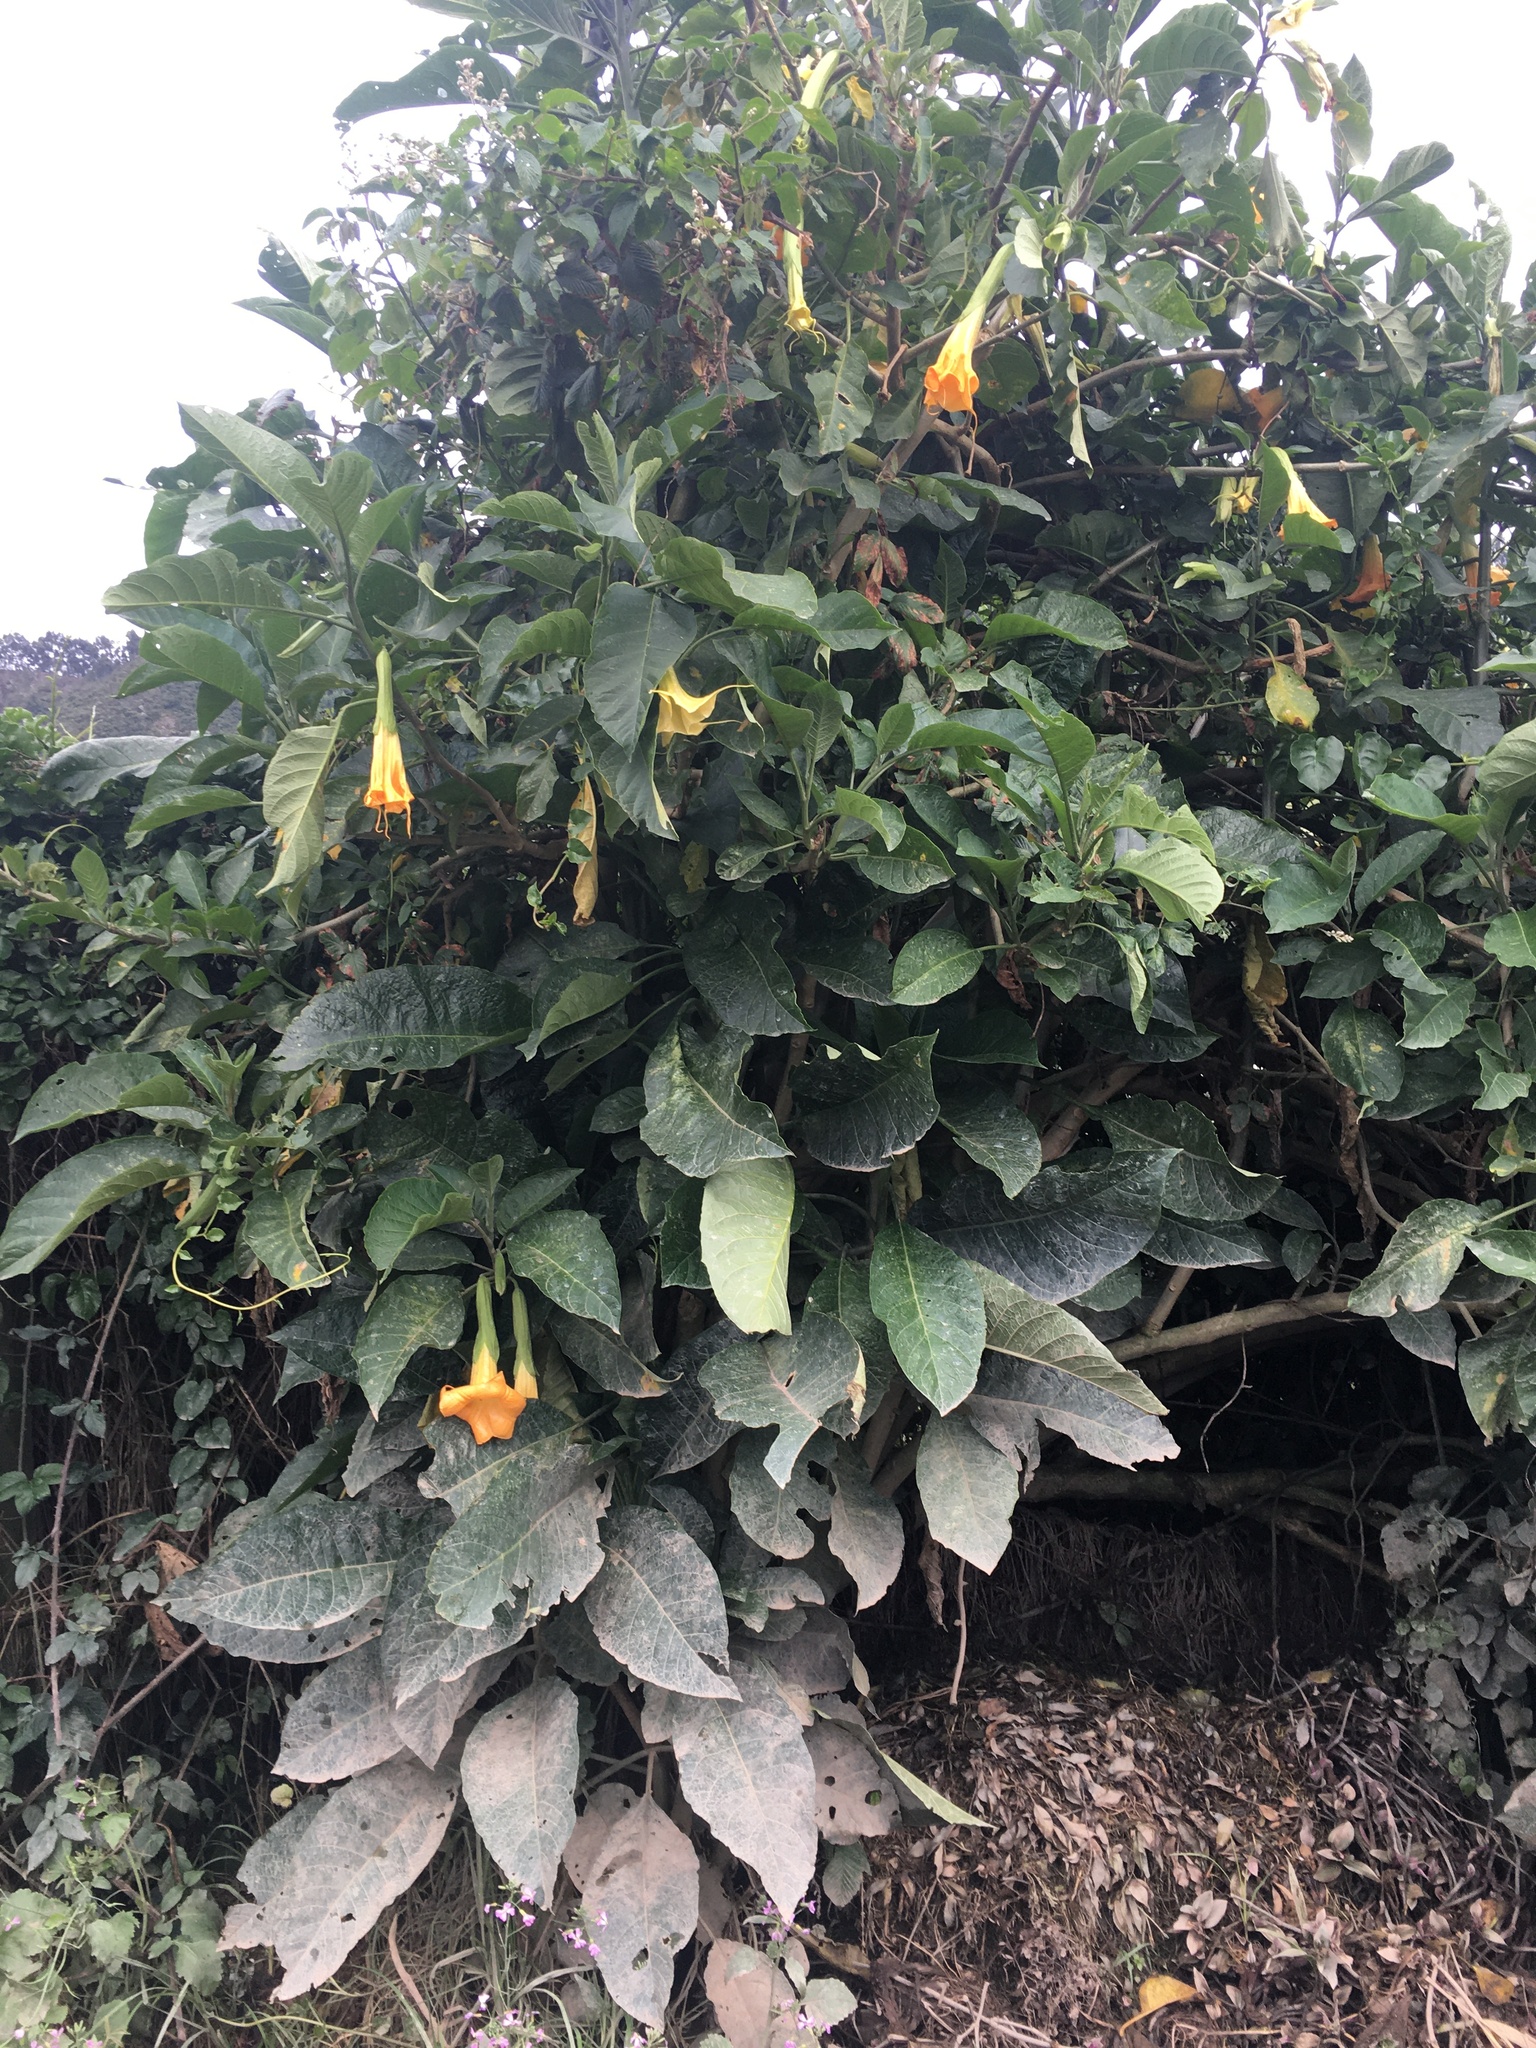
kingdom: Plantae
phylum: Tracheophyta
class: Magnoliopsida
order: Solanales
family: Solanaceae
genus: Brugmansia
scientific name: Brugmansia aurea
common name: Yellow angel's-trumpet
